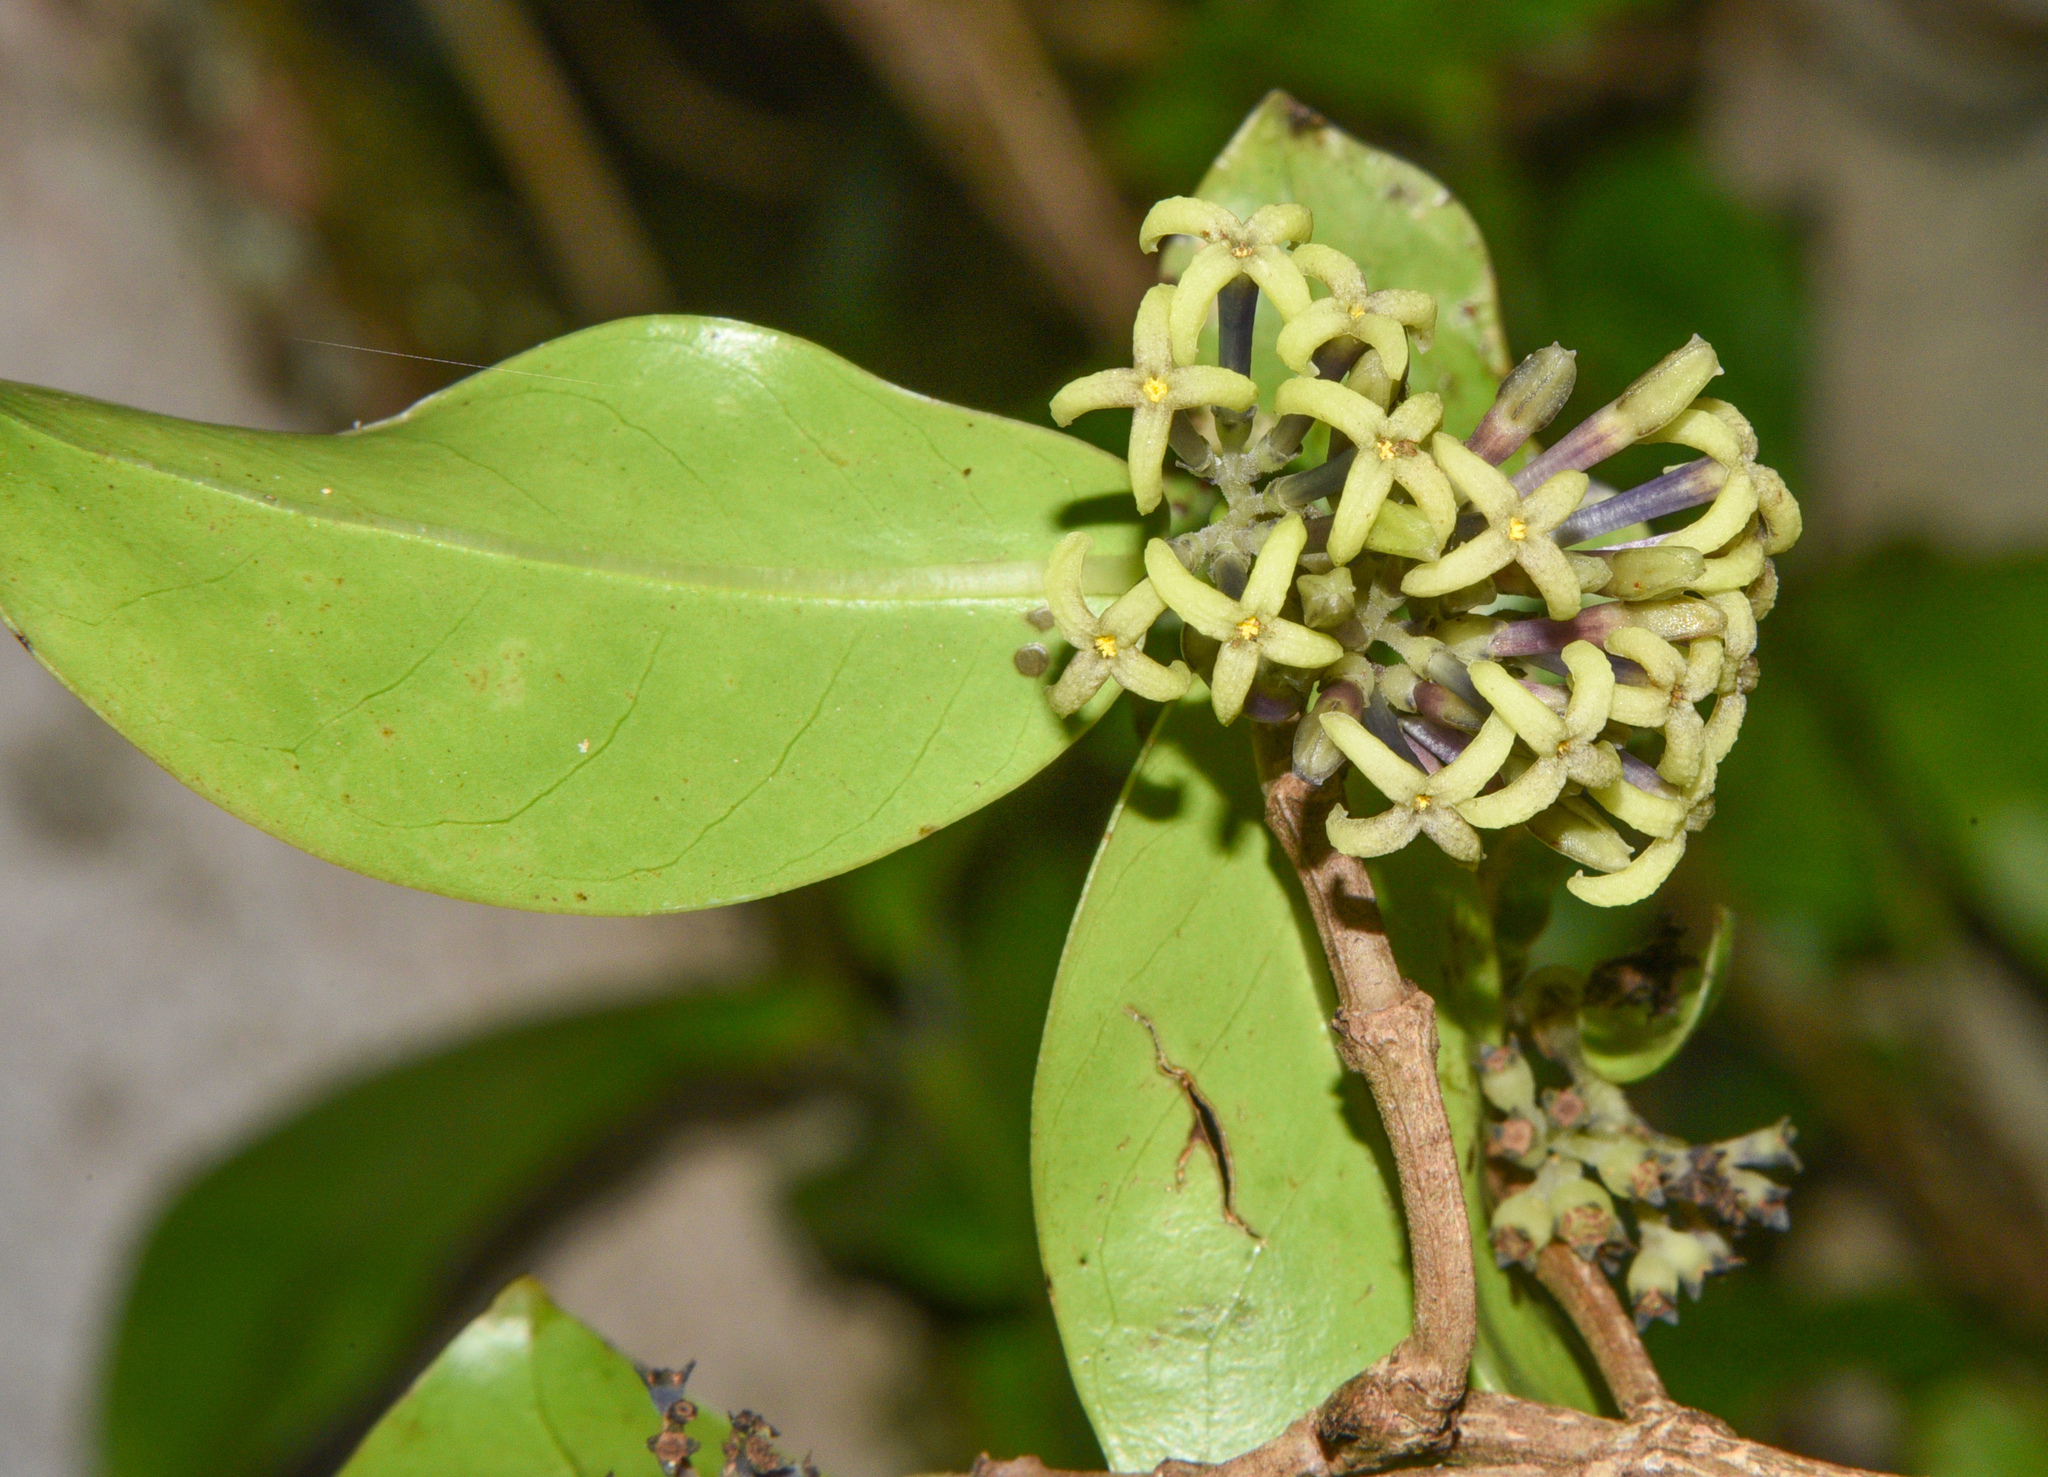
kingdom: Plantae
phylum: Tracheophyta
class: Magnoliopsida
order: Gentianales
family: Rubiaceae
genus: Kadua
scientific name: Kadua affinis
